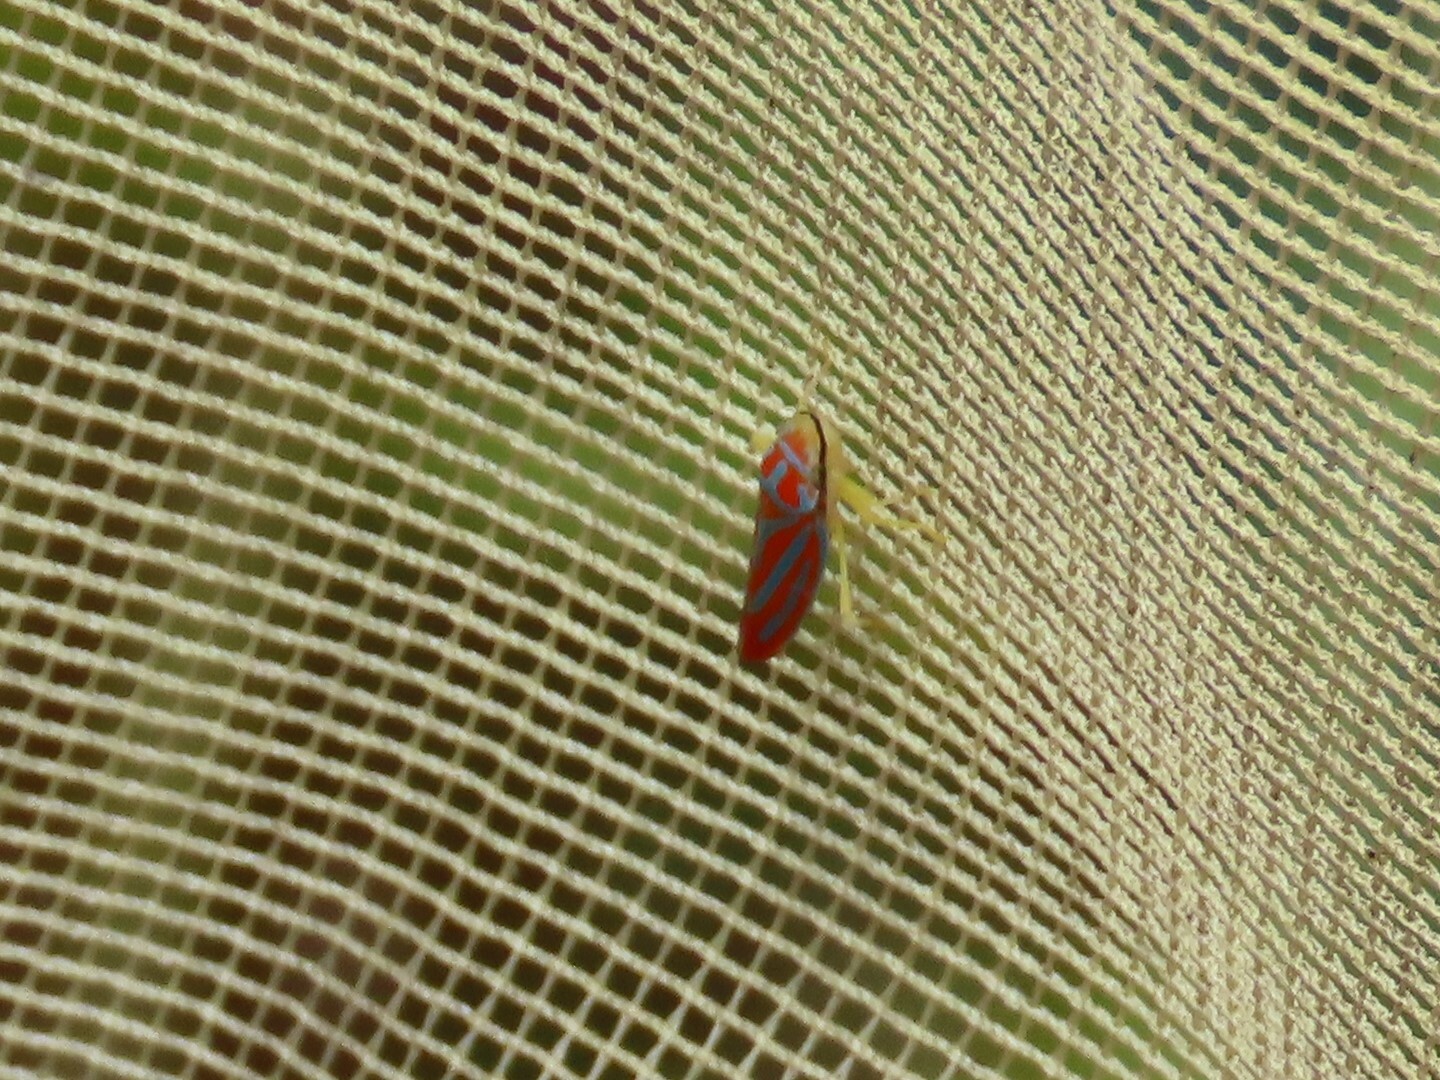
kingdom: Animalia
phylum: Arthropoda
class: Insecta
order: Hemiptera
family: Cicadellidae
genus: Graphocephala
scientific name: Graphocephala coccinea
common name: Candy-striped leafhopper
